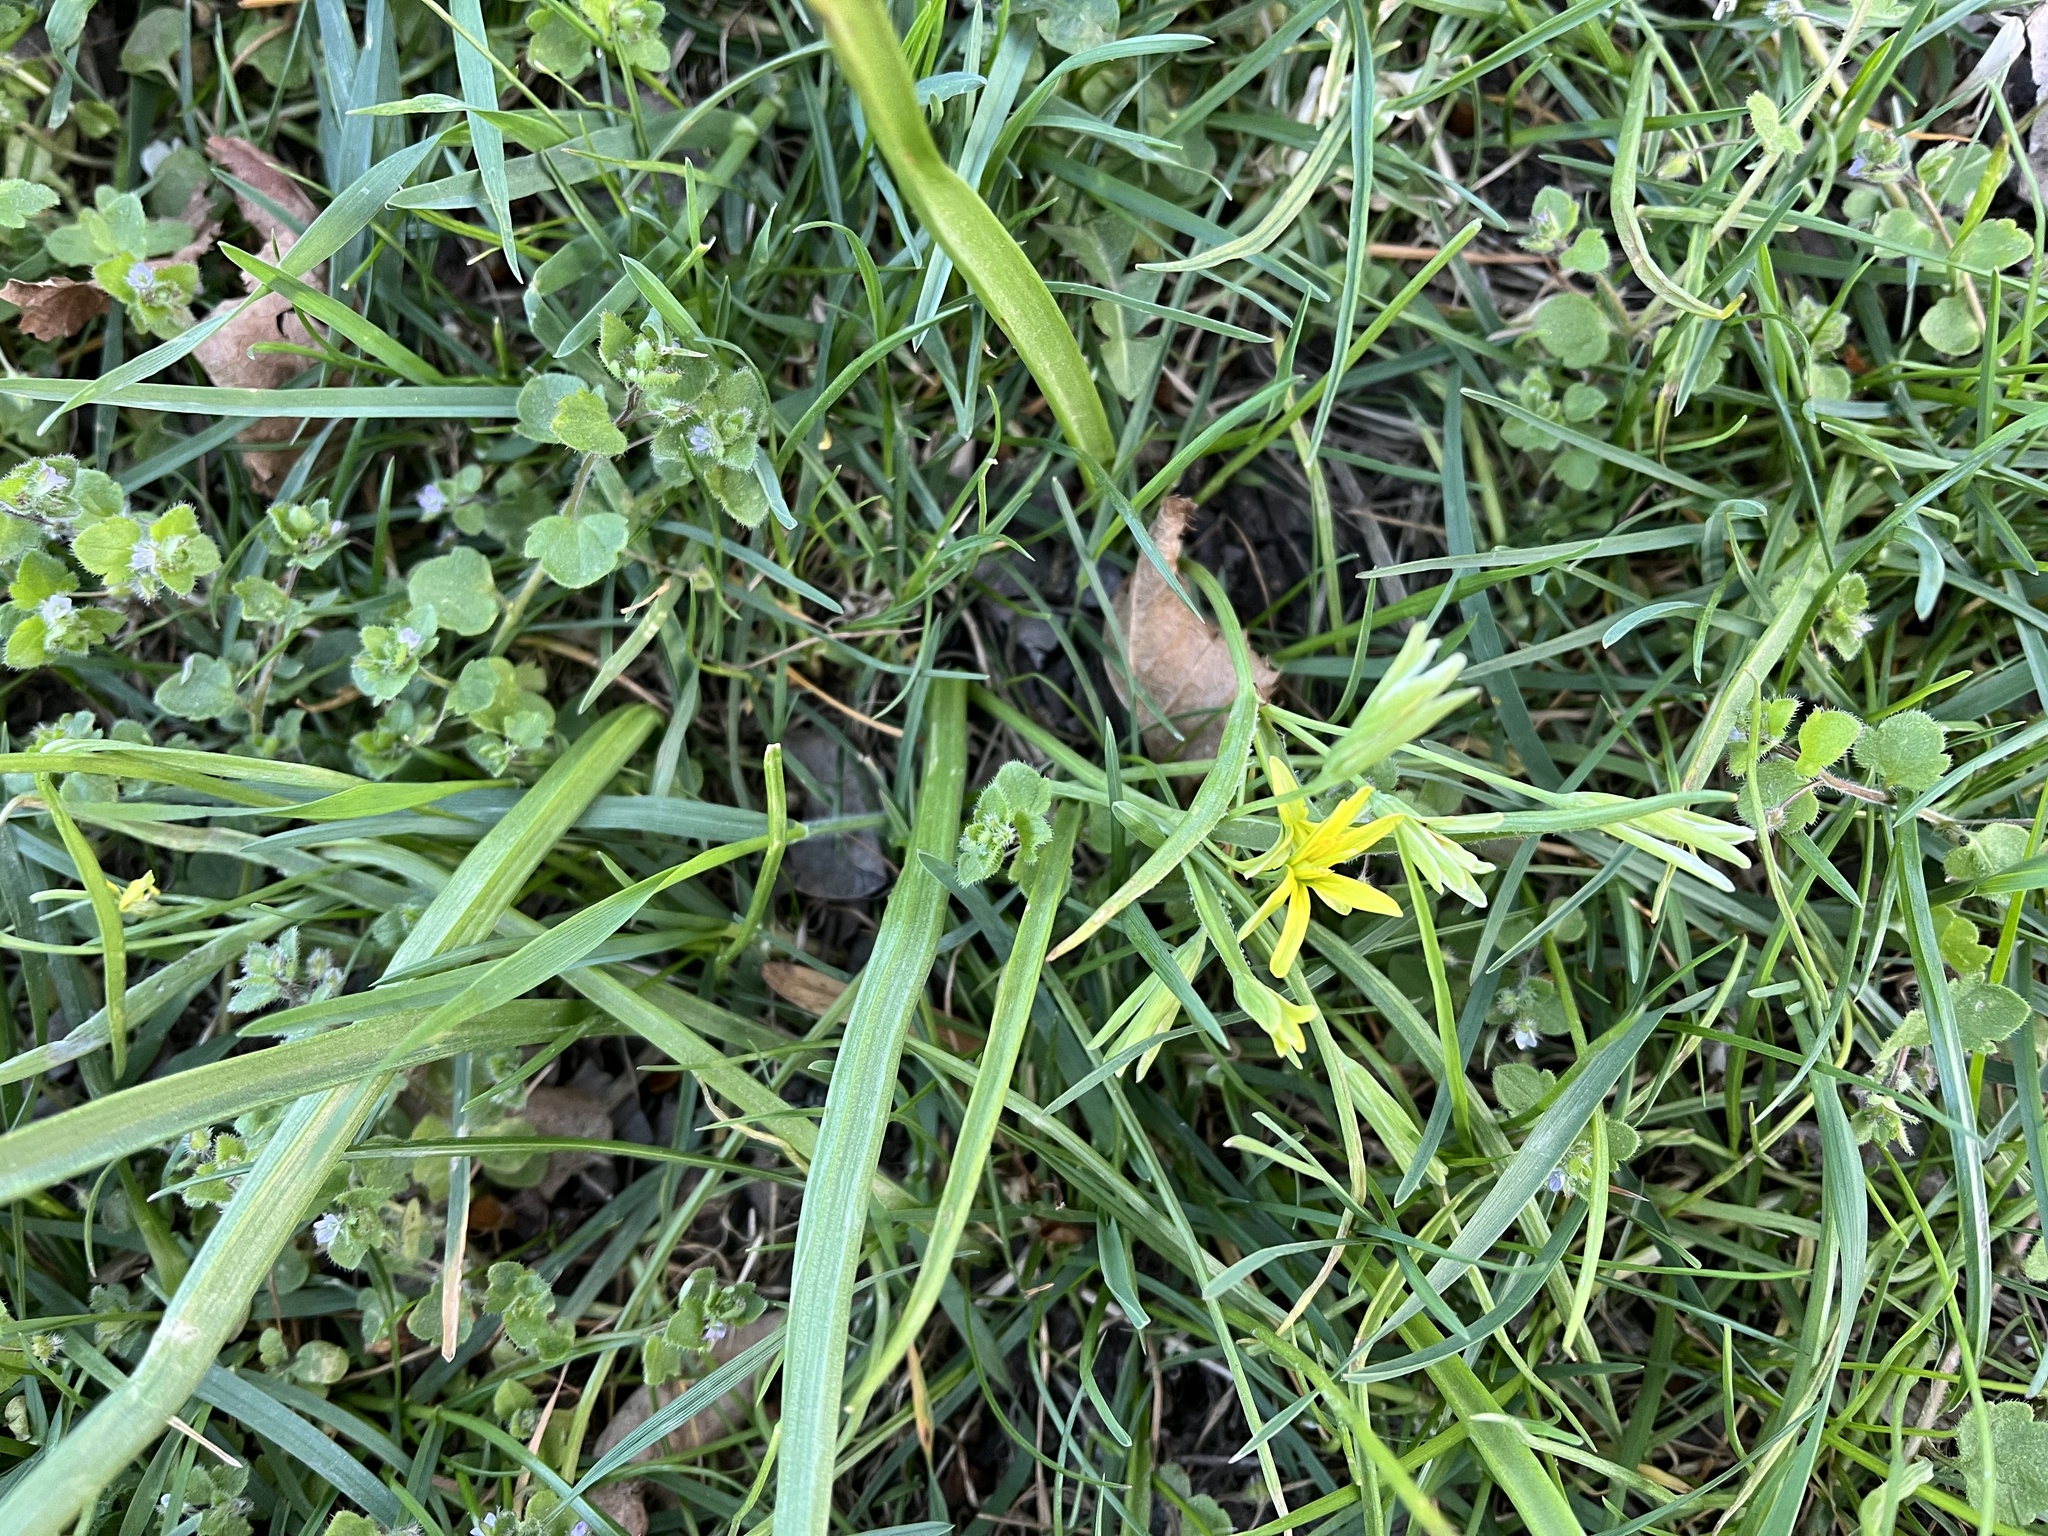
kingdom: Plantae
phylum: Tracheophyta
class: Liliopsida
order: Liliales
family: Liliaceae
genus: Gagea
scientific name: Gagea lutea
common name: Yellow star-of-bethlehem
